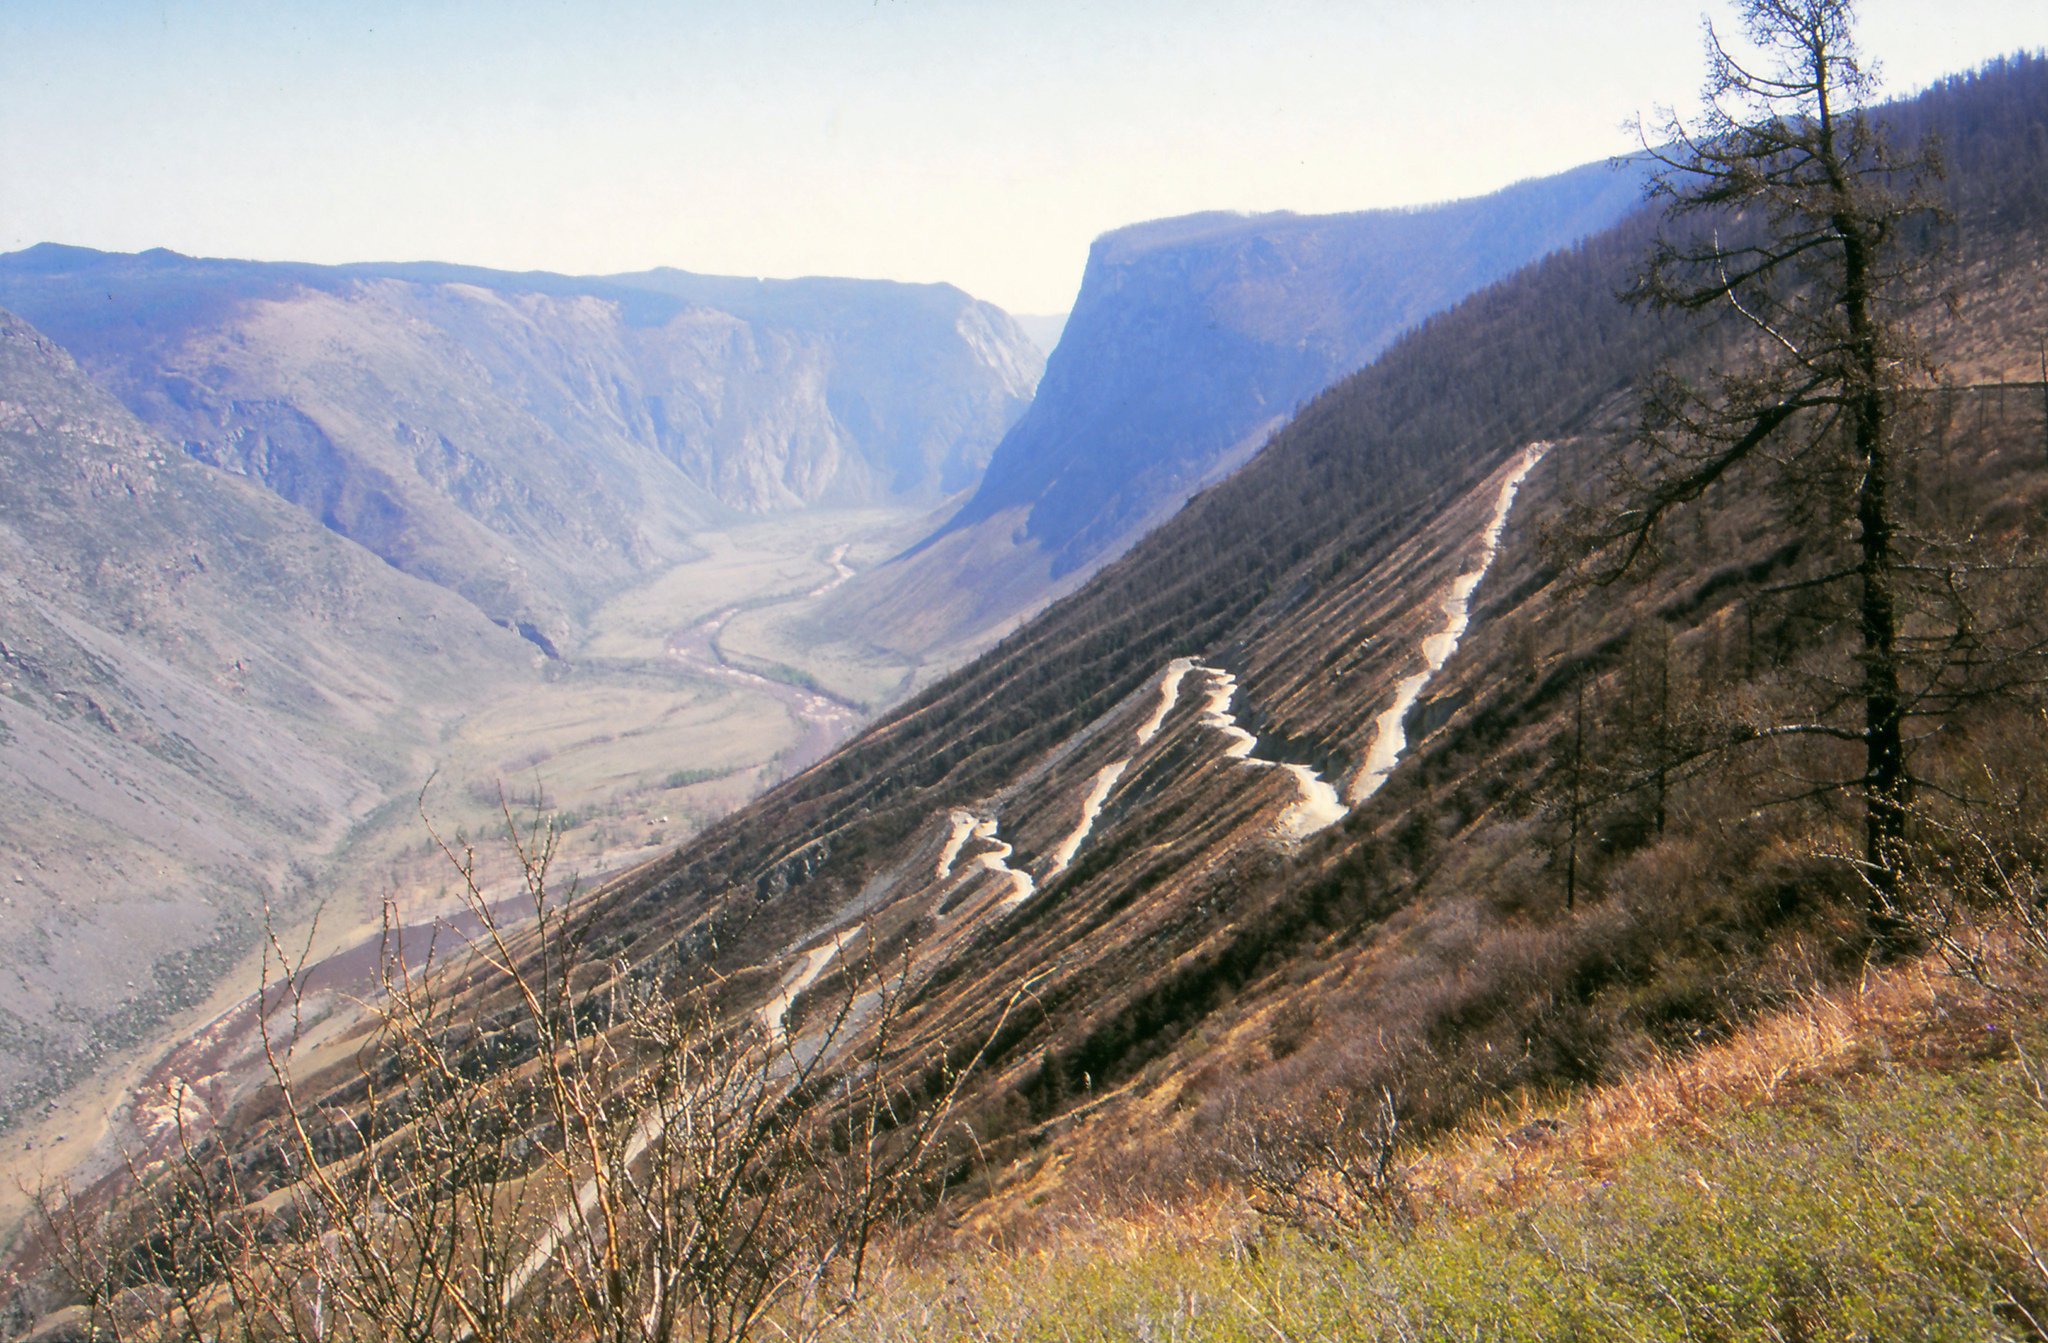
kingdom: Plantae
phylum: Tracheophyta
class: Pinopsida
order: Pinales
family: Pinaceae
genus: Larix
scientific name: Larix sibirica
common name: Siberian larch
